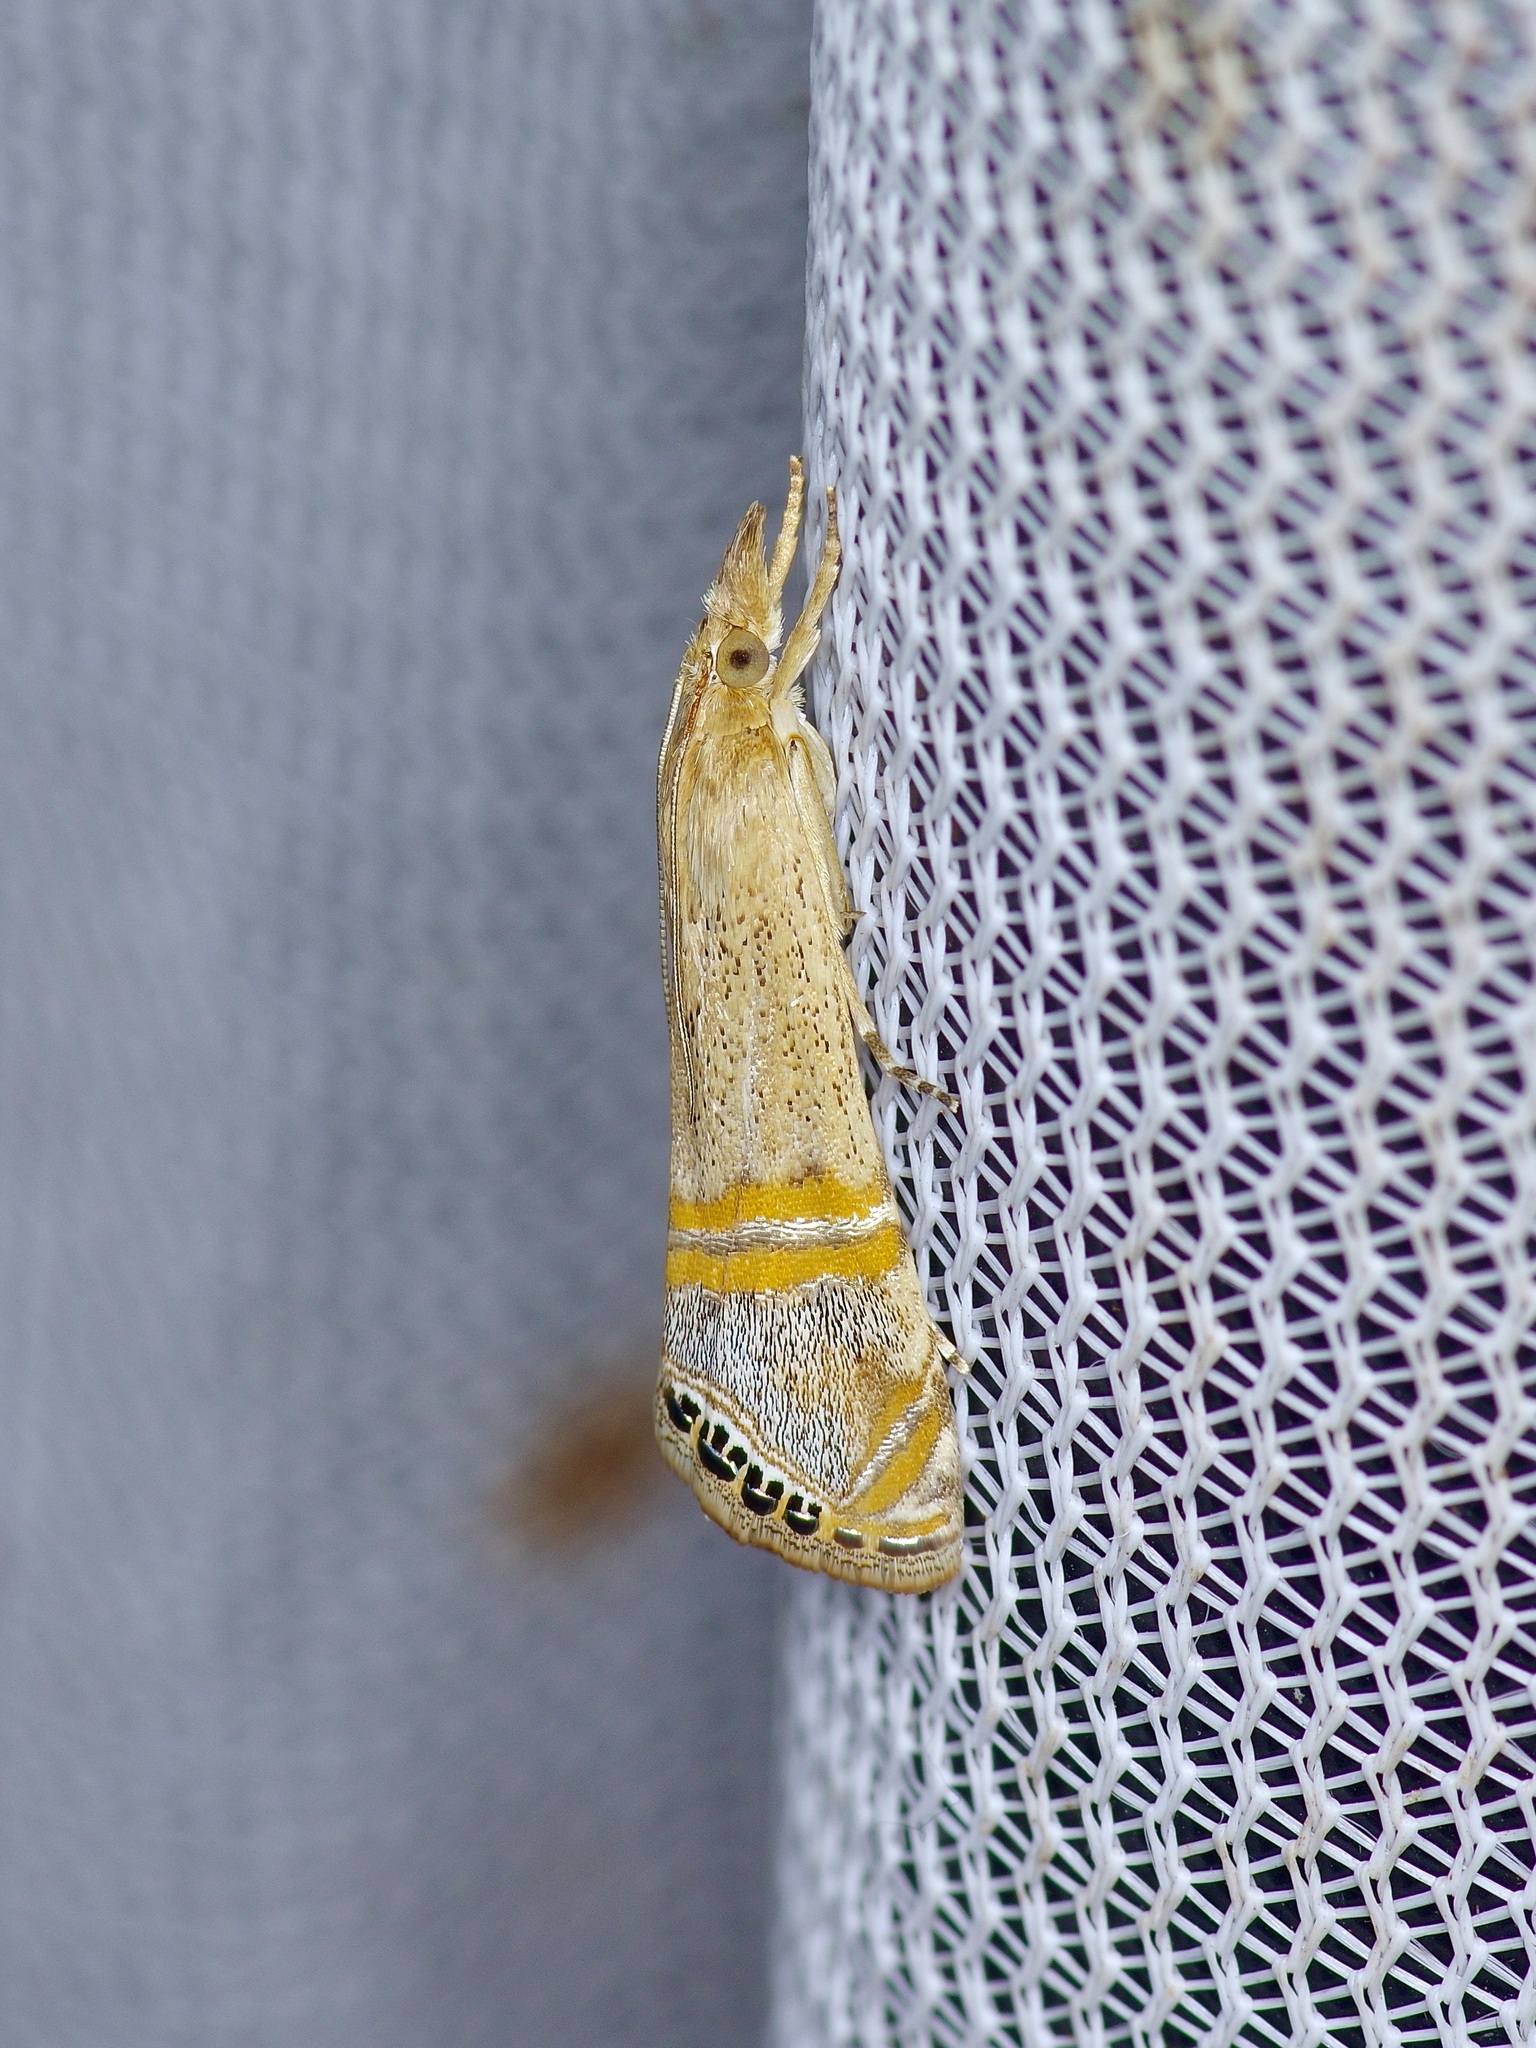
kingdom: Animalia
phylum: Arthropoda
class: Insecta
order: Lepidoptera
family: Crambidae
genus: Euchromius
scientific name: Euchromius ocellea
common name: Necklace veneer moth
